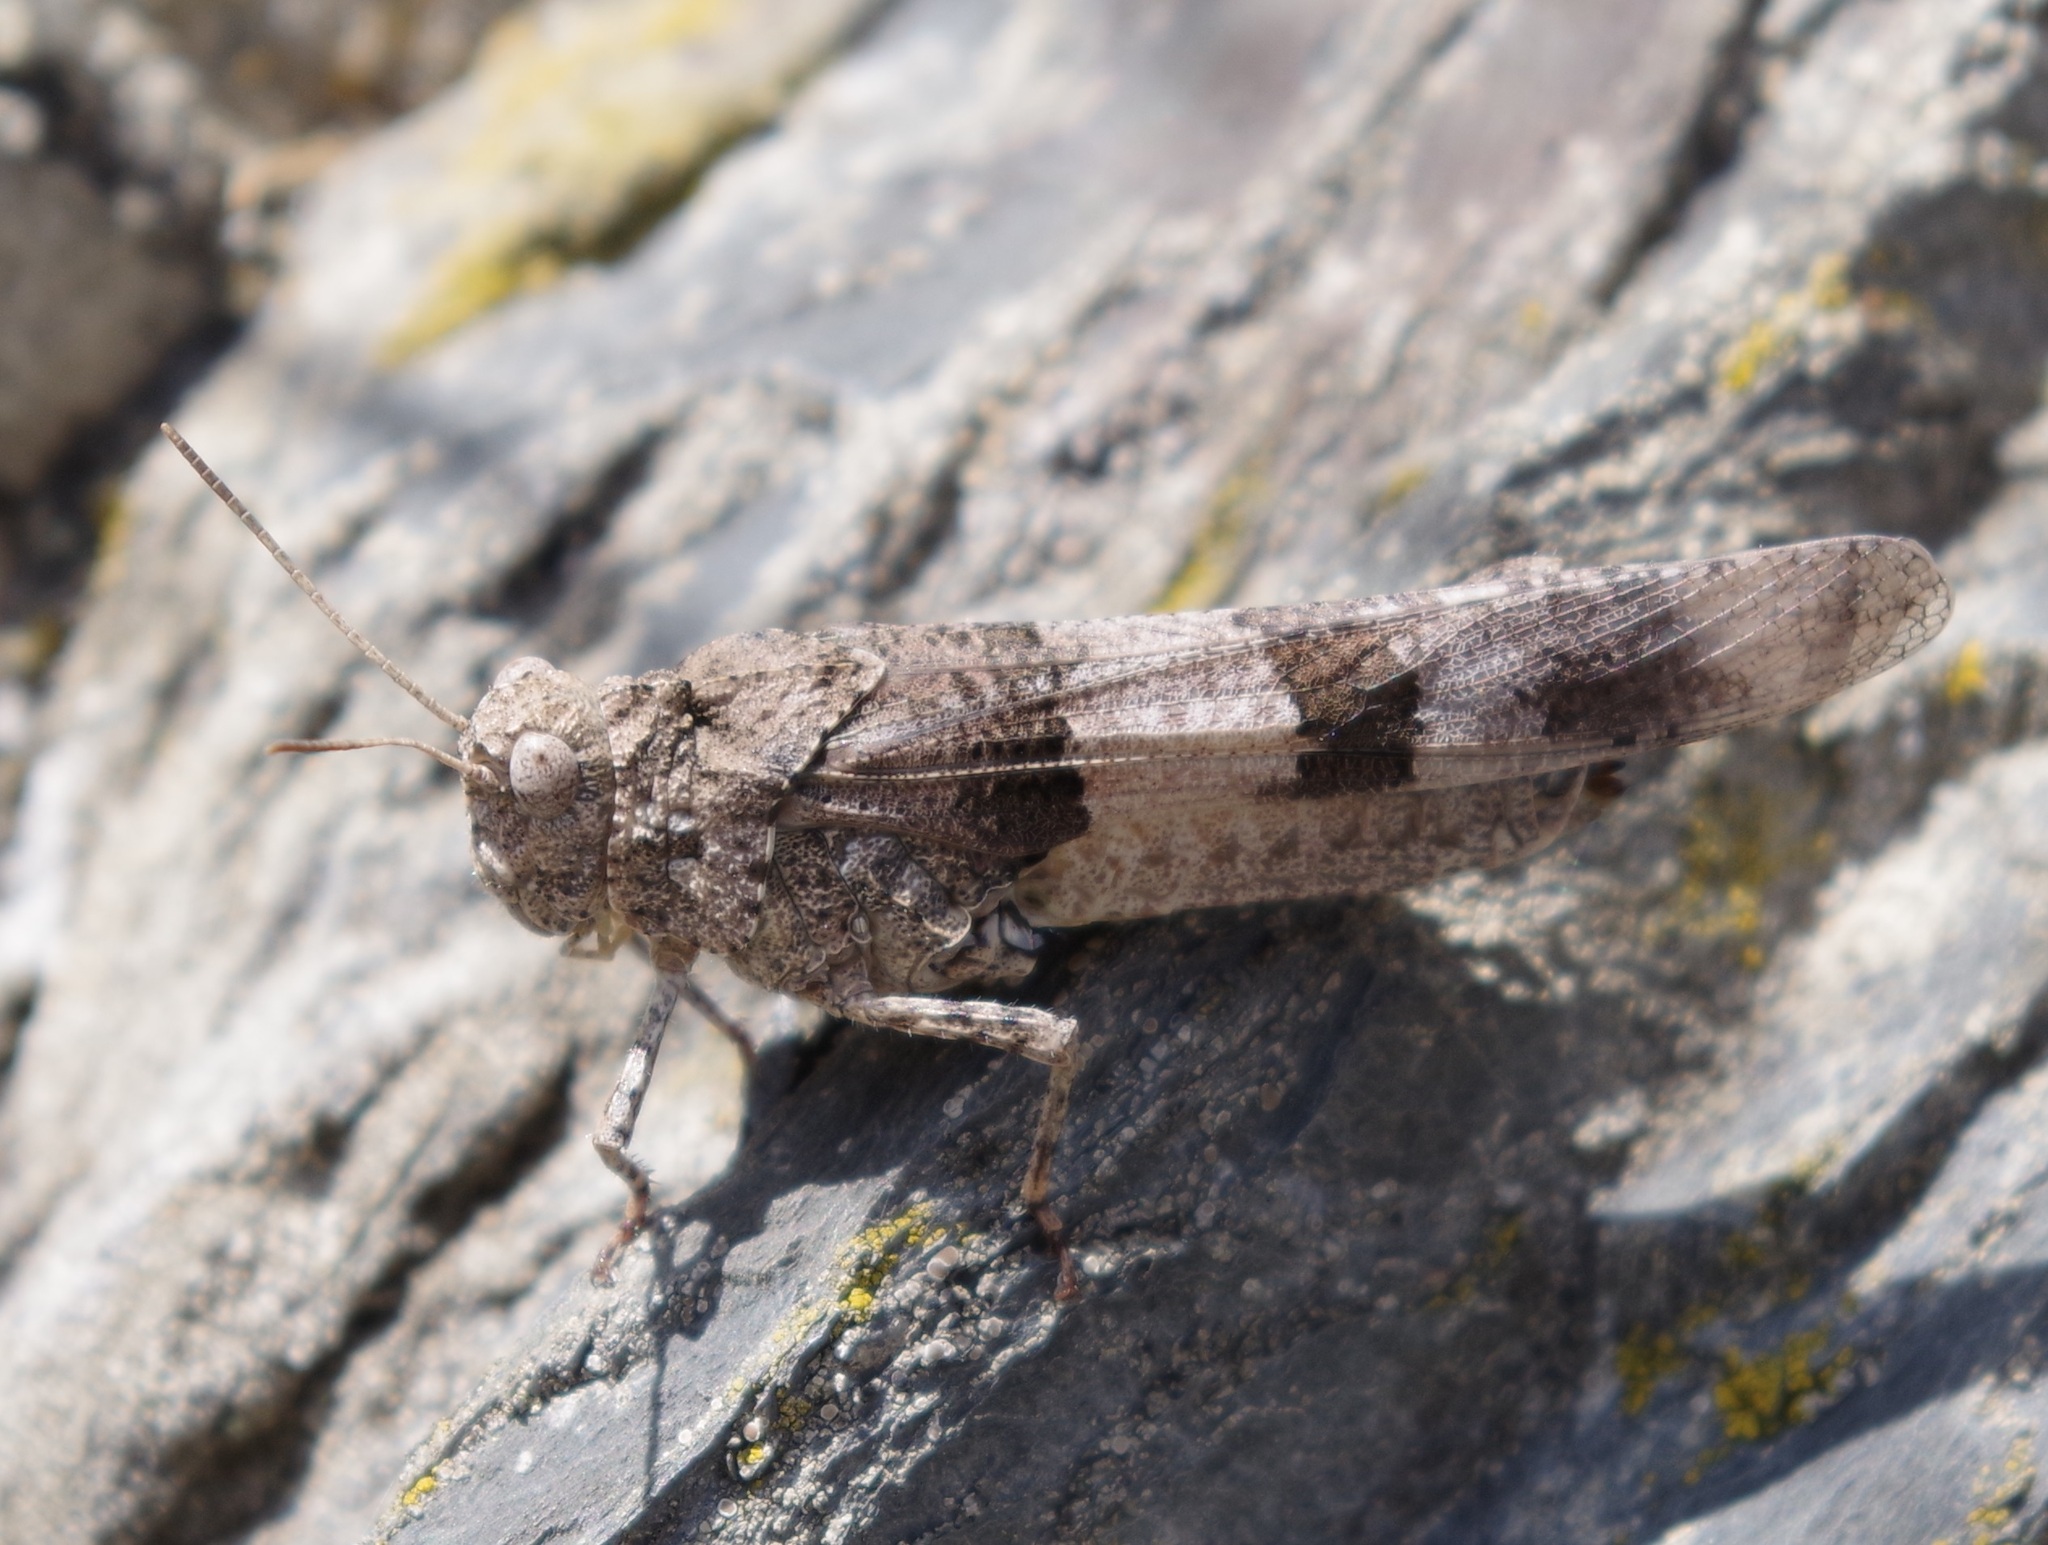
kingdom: Animalia
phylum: Arthropoda
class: Insecta
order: Orthoptera
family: Acrididae
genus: Oedipoda
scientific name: Oedipoda caerulescens
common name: Blue-winged grasshopper
